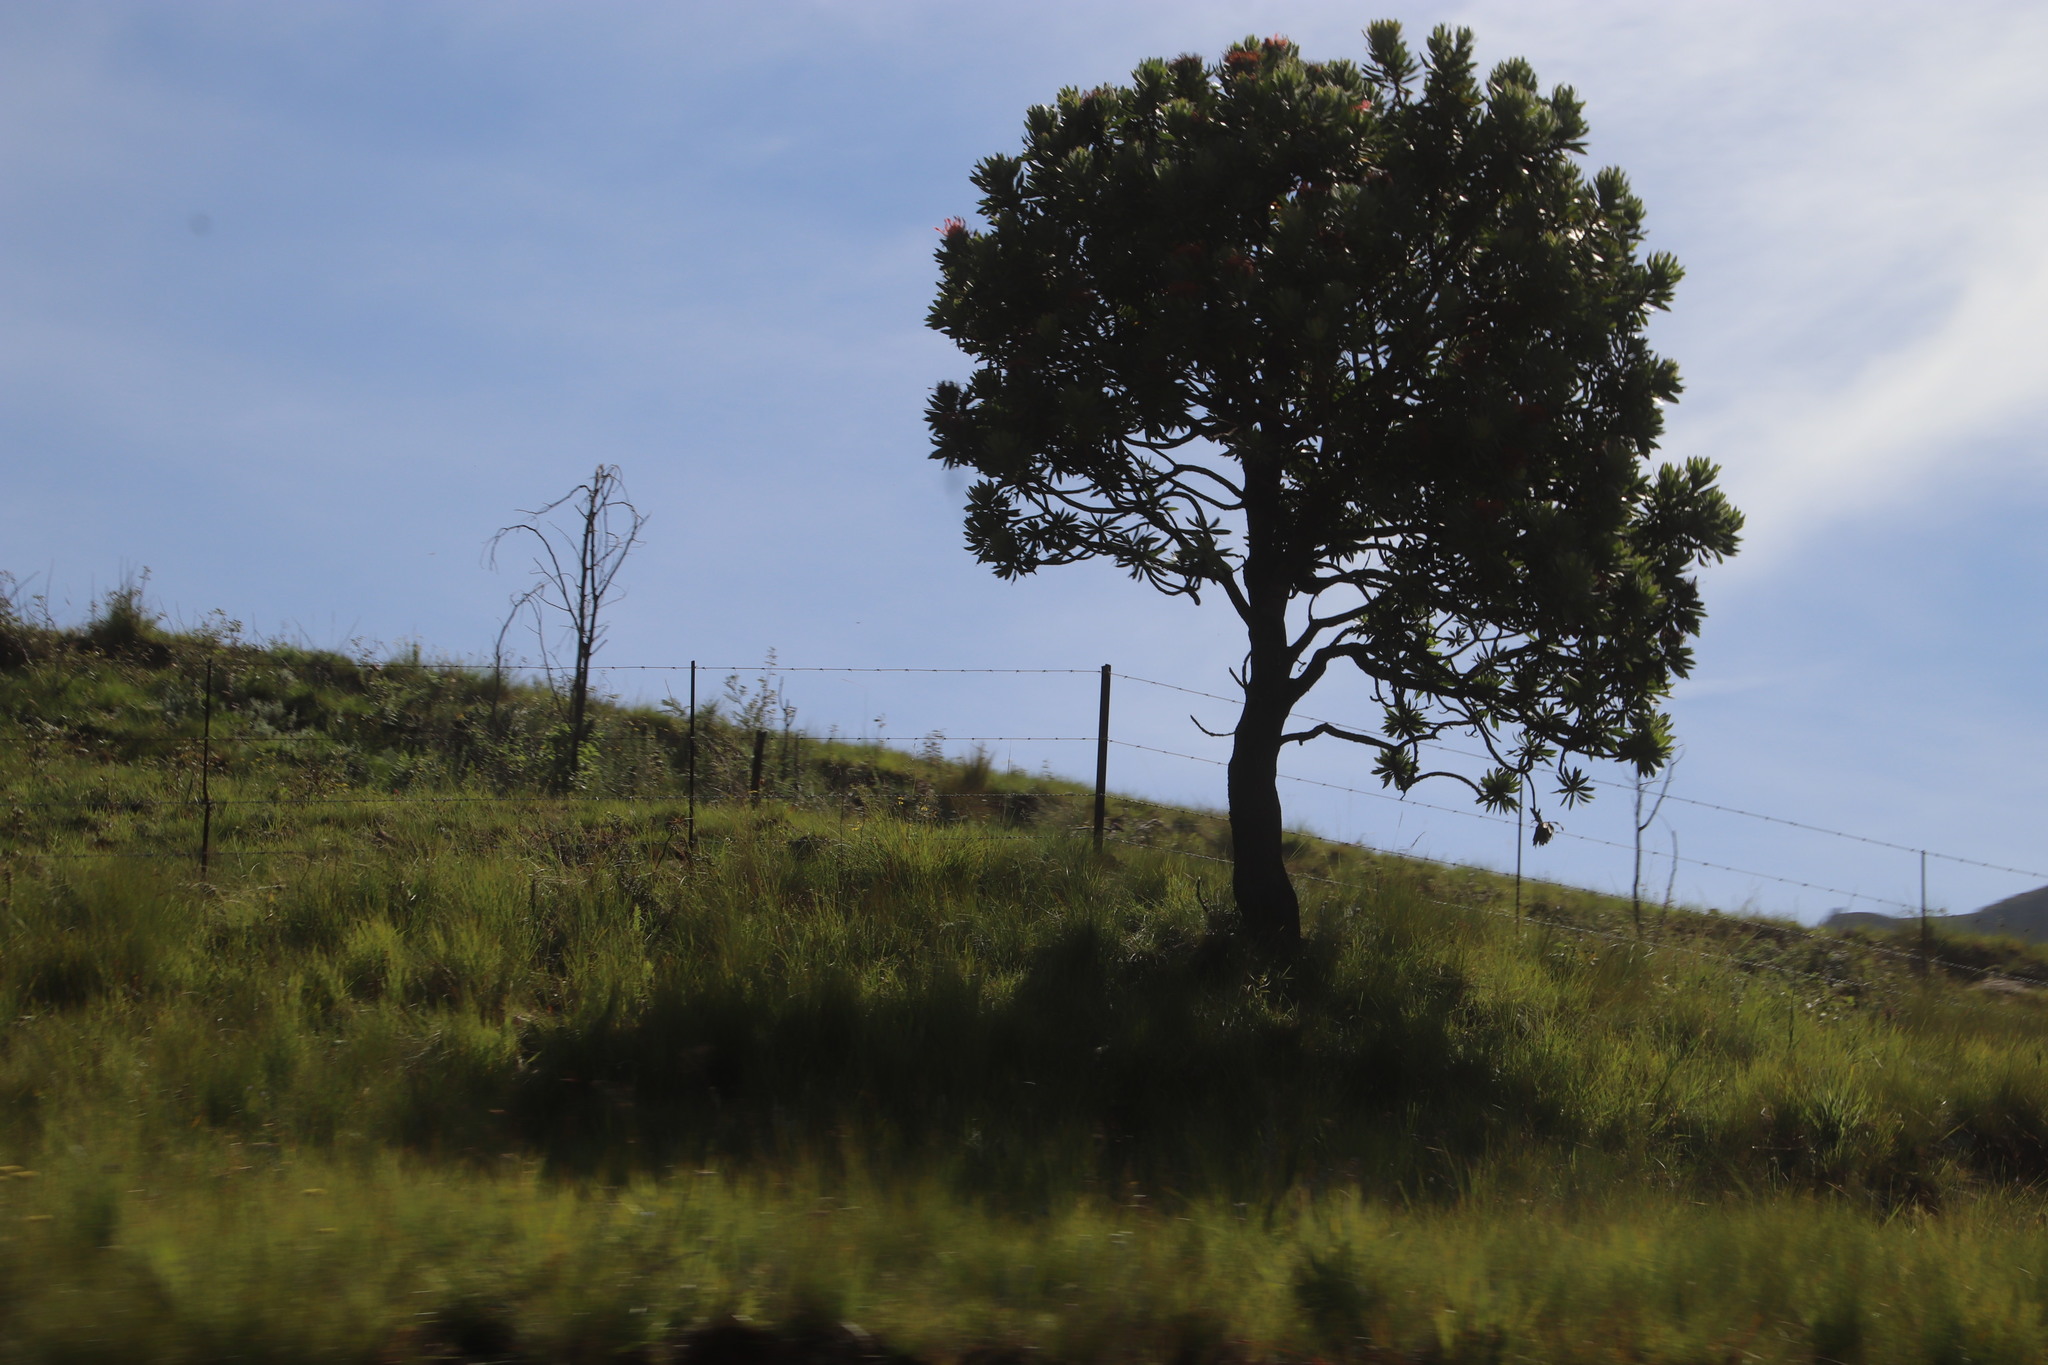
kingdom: Plantae
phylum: Tracheophyta
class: Magnoliopsida
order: Proteales
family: Proteaceae
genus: Protea
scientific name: Protea roupelliae
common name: Silver sugarbush
